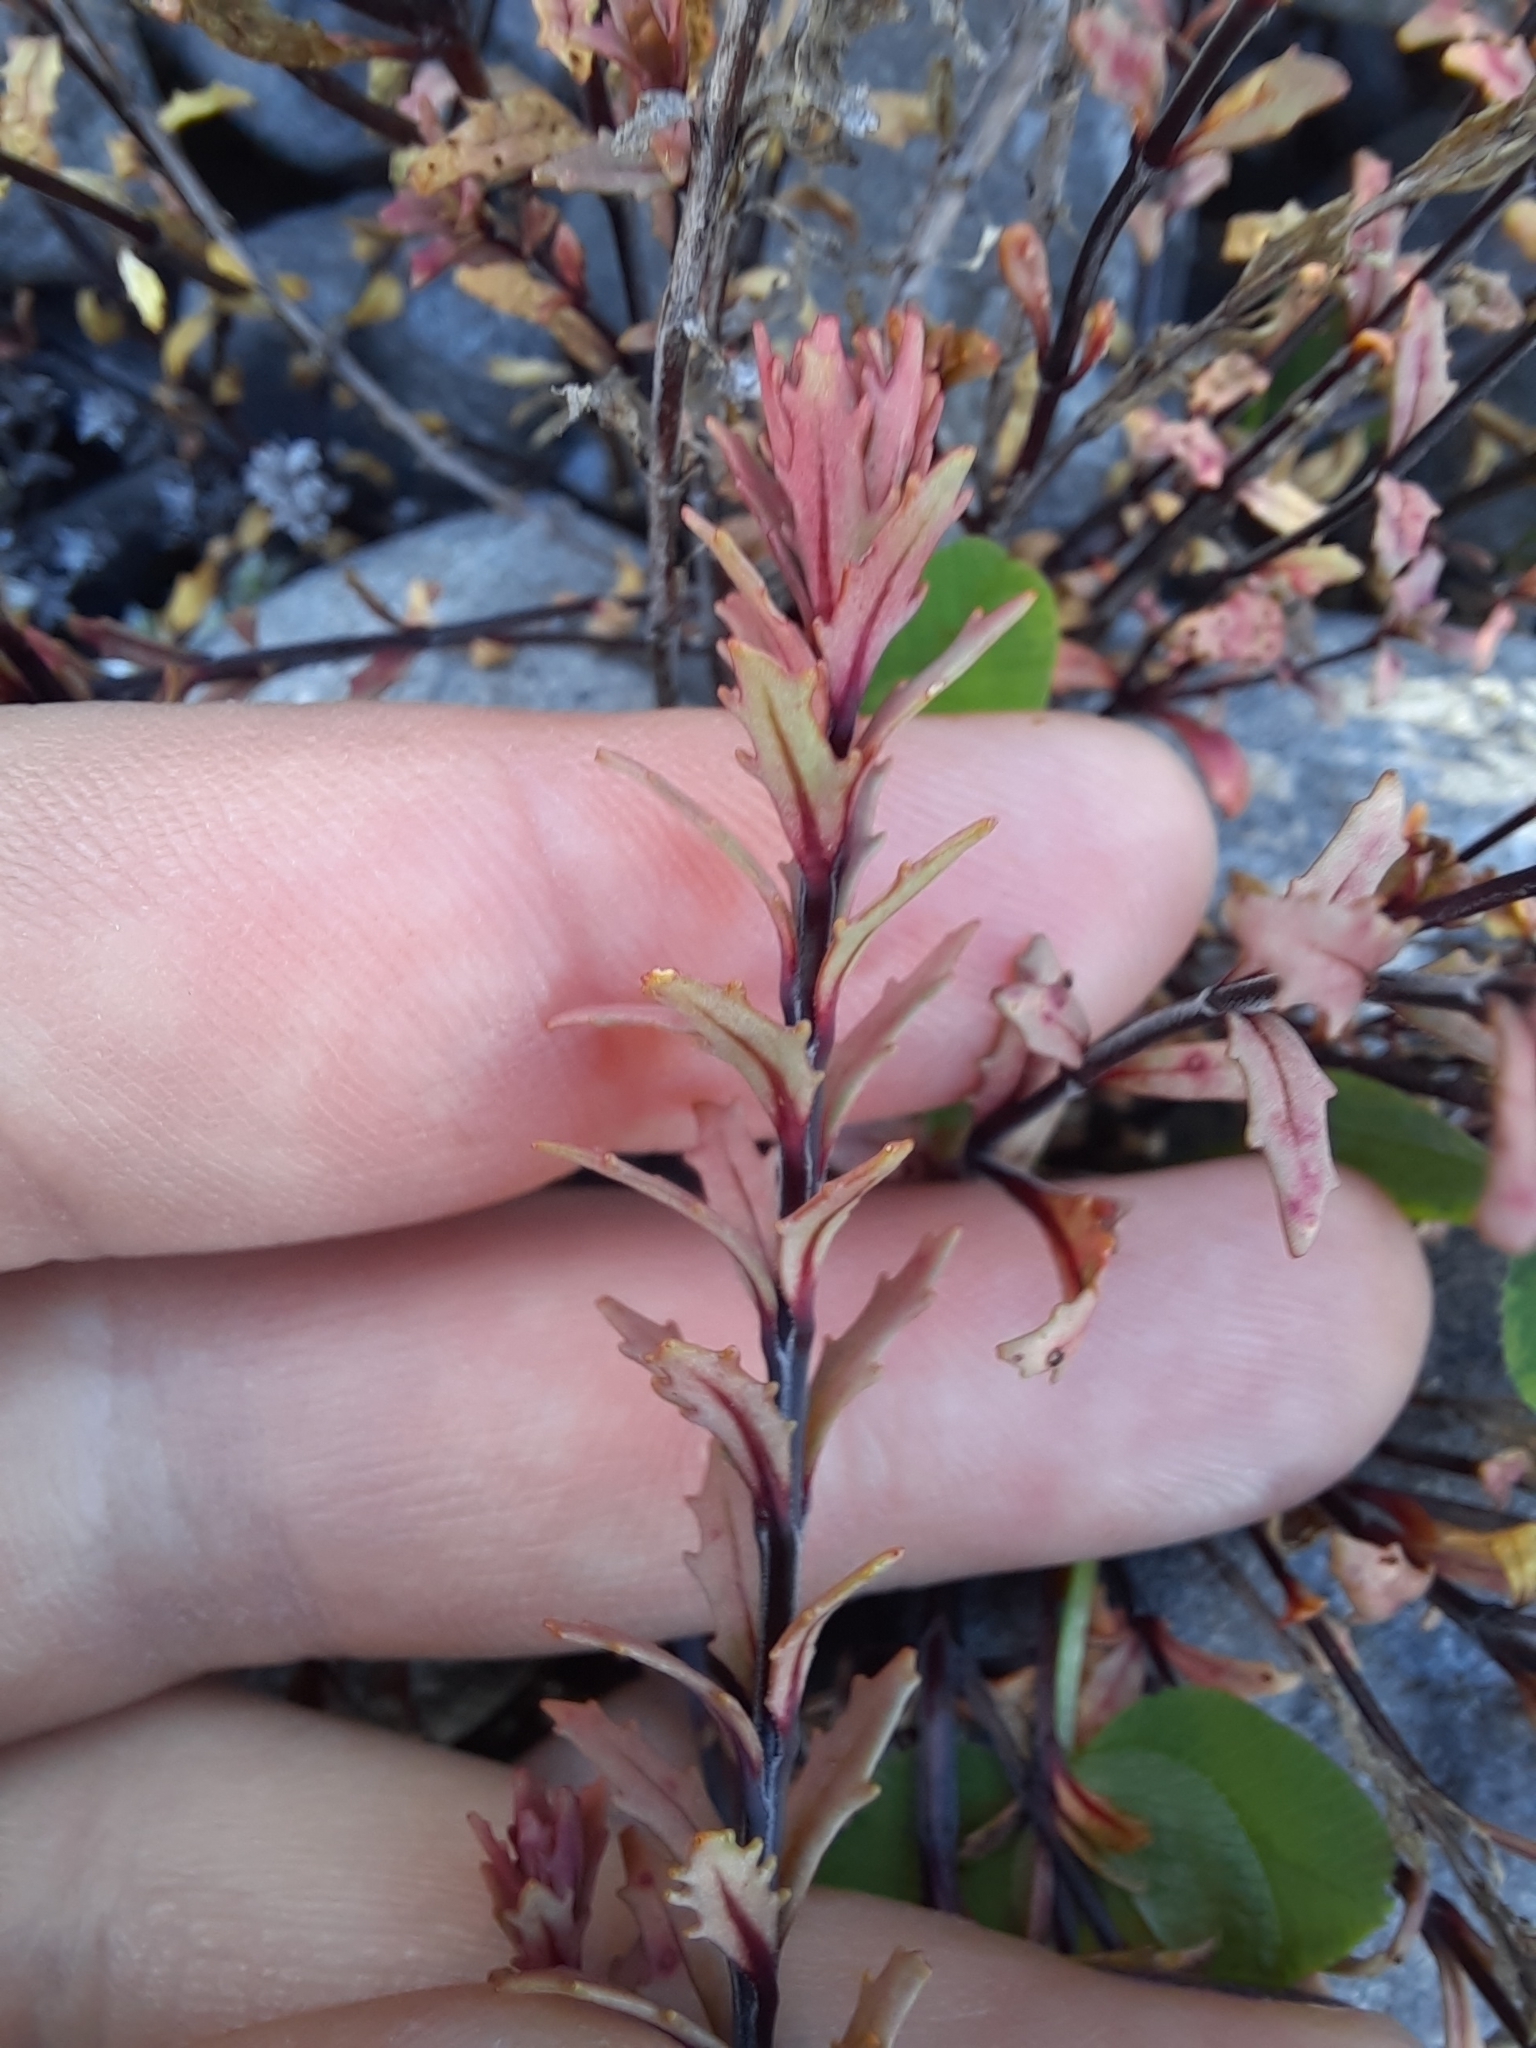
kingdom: Plantae
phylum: Tracheophyta
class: Magnoliopsida
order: Myrtales
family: Onagraceae
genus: Epilobium
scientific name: Epilobium melanocaulon
